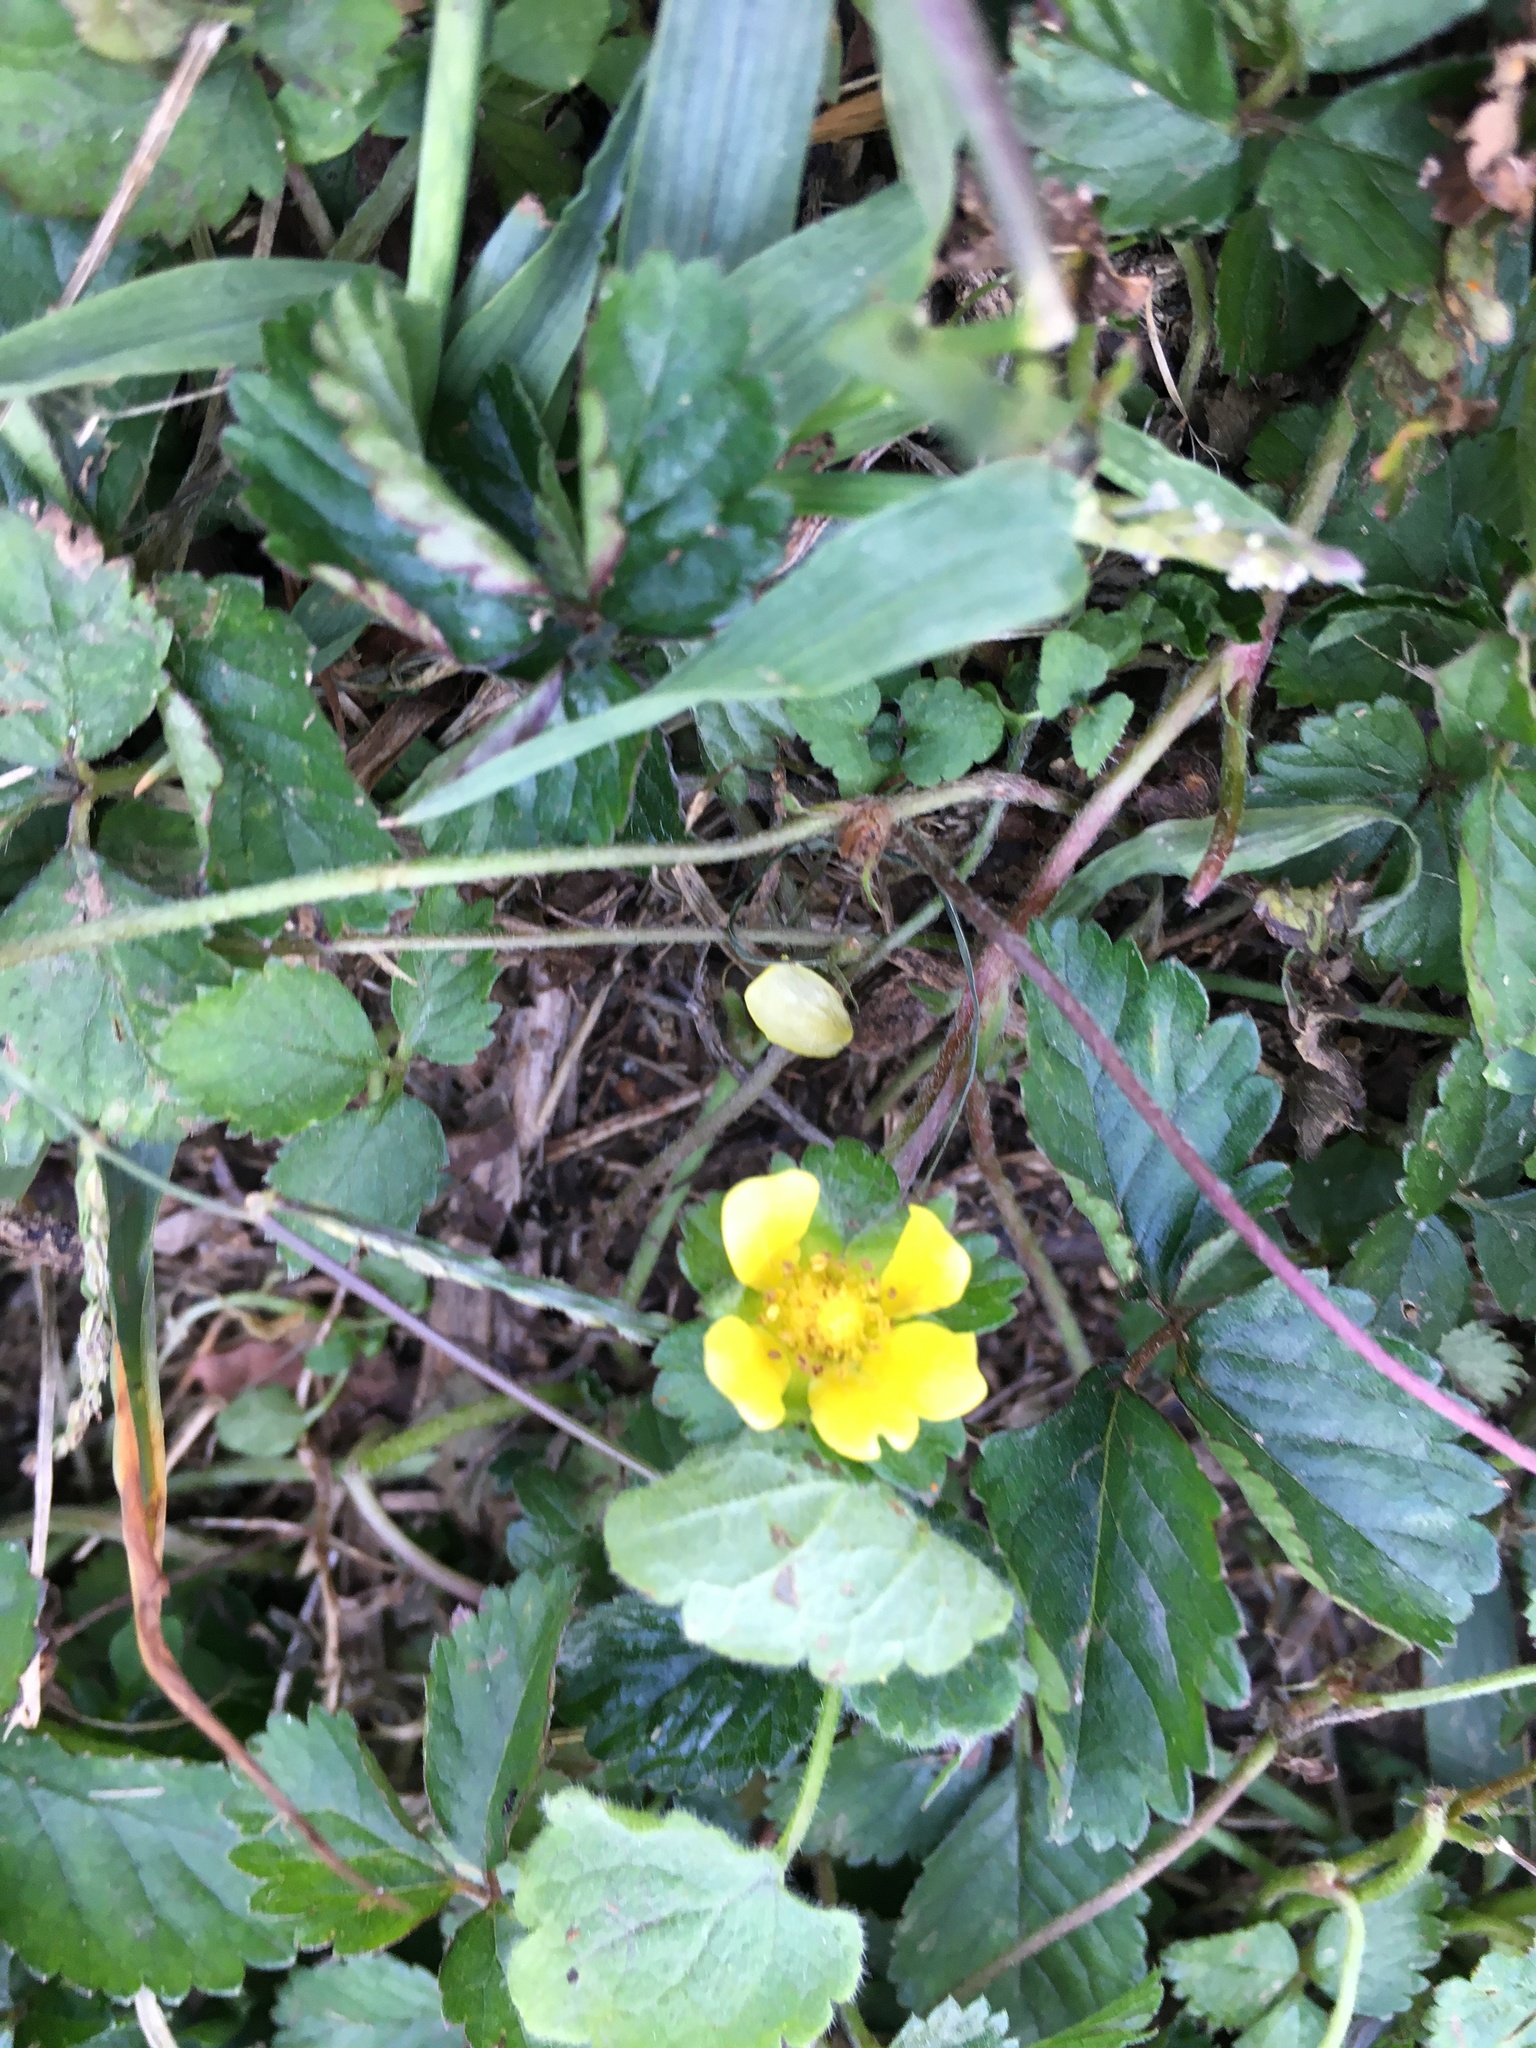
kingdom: Plantae
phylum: Tracheophyta
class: Magnoliopsida
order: Rosales
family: Rosaceae
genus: Potentilla
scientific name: Potentilla indica
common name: Yellow-flowered strawberry
